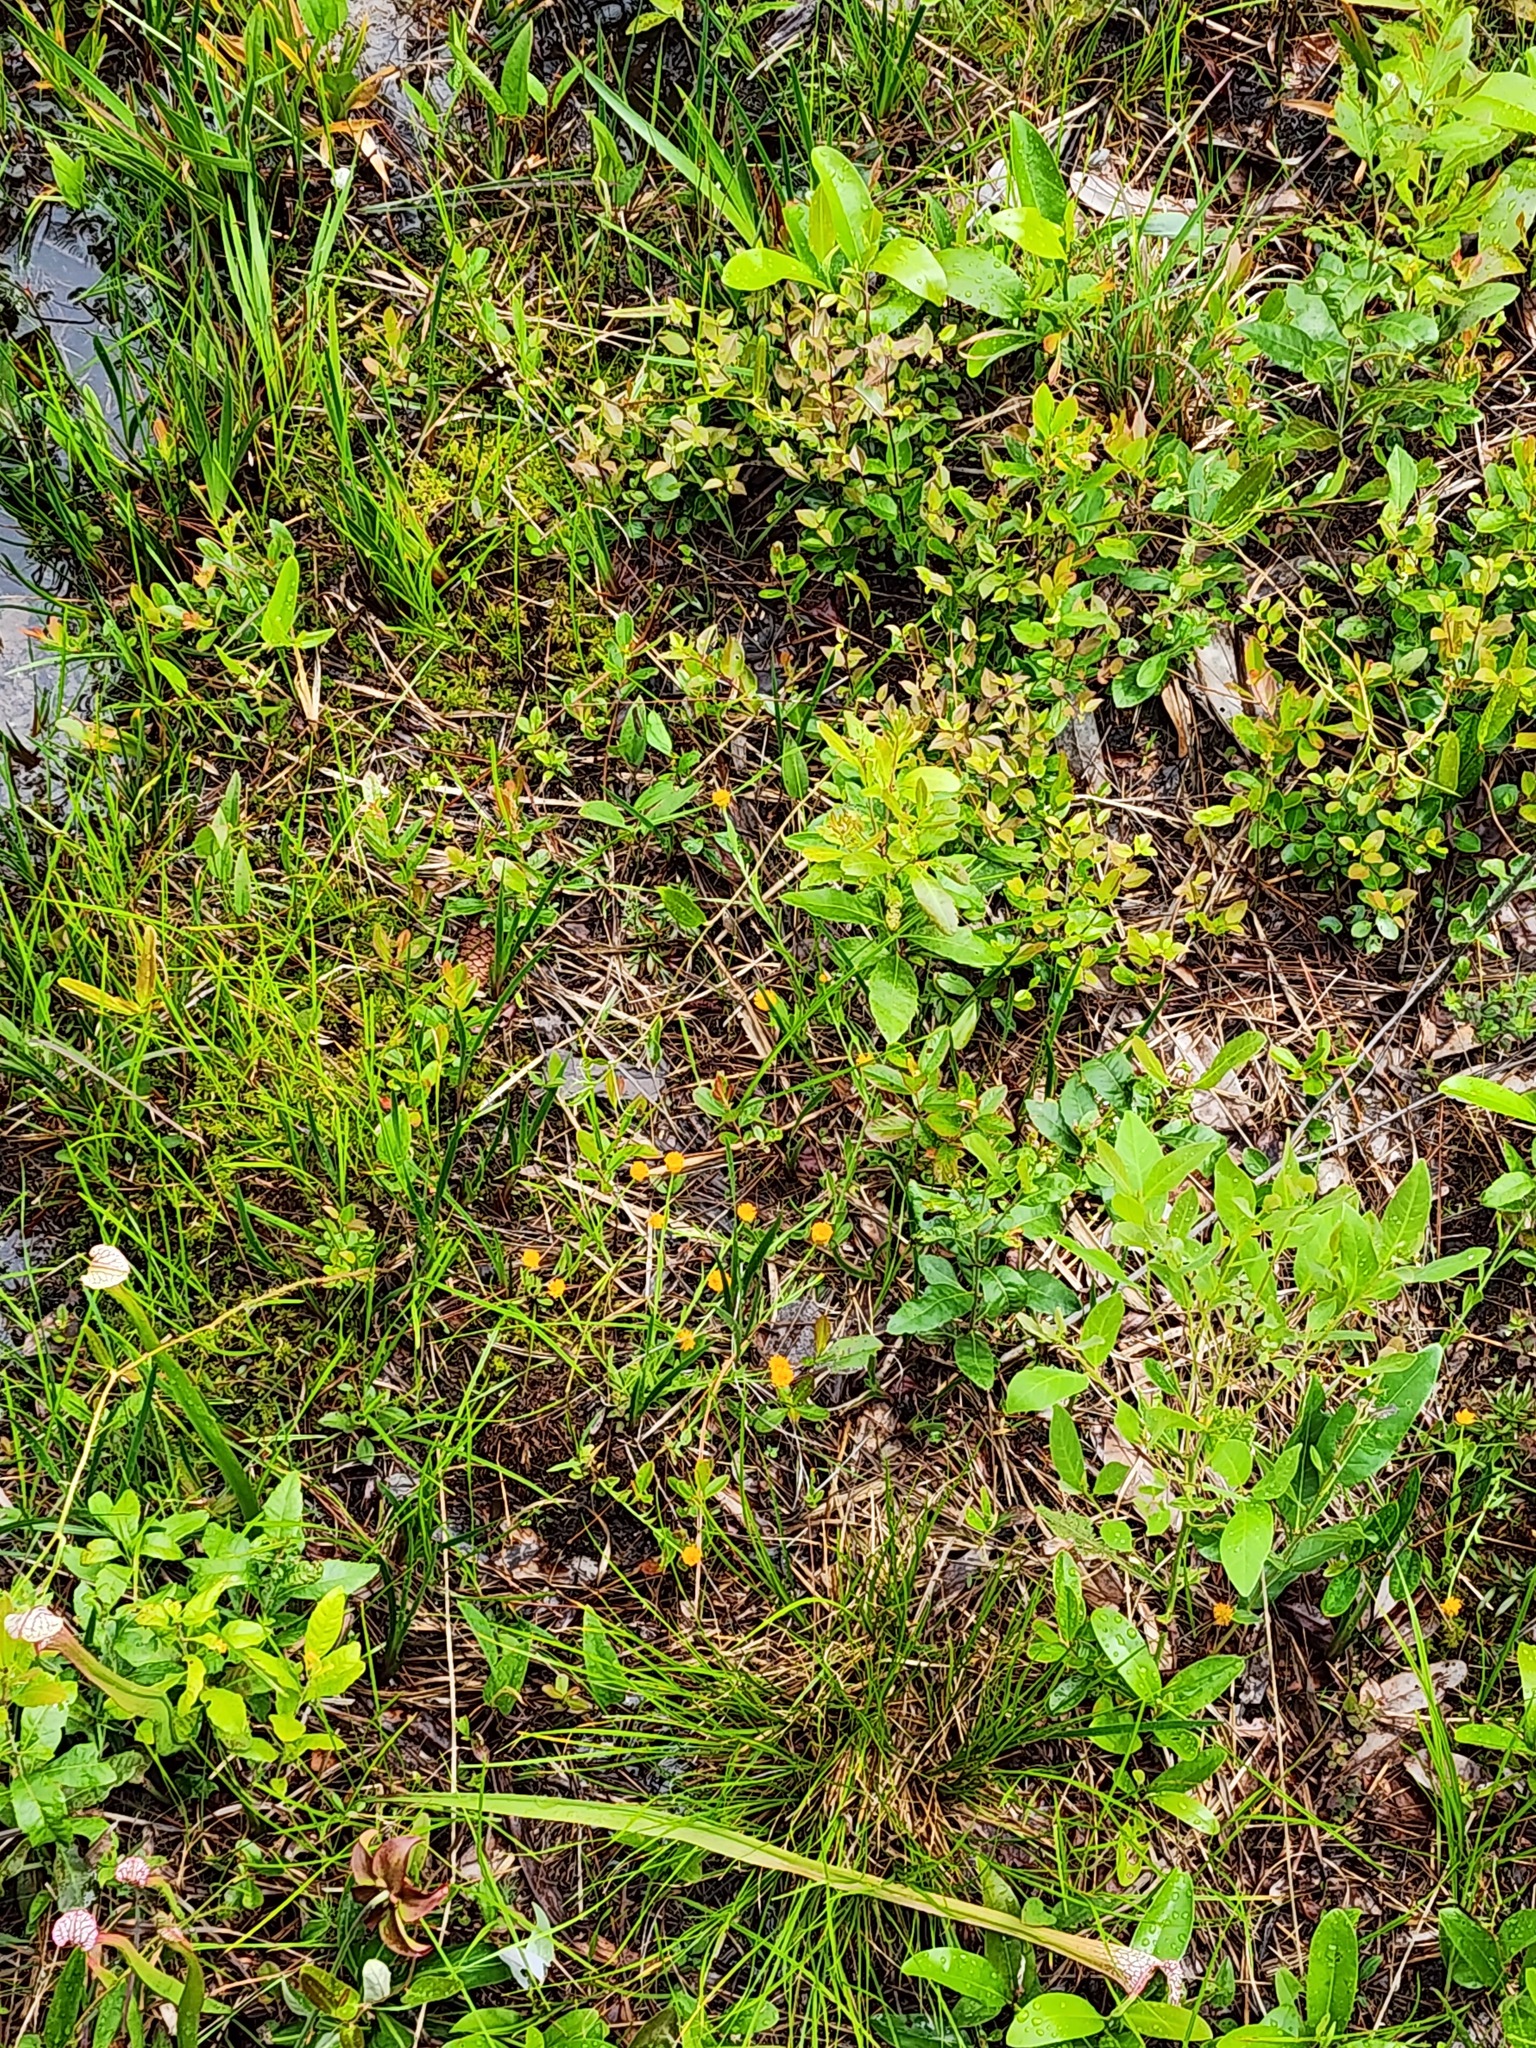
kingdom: Plantae
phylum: Tracheophyta
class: Magnoliopsida
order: Fabales
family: Polygalaceae
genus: Polygala
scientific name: Polygala lutea
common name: Orange milkwort
